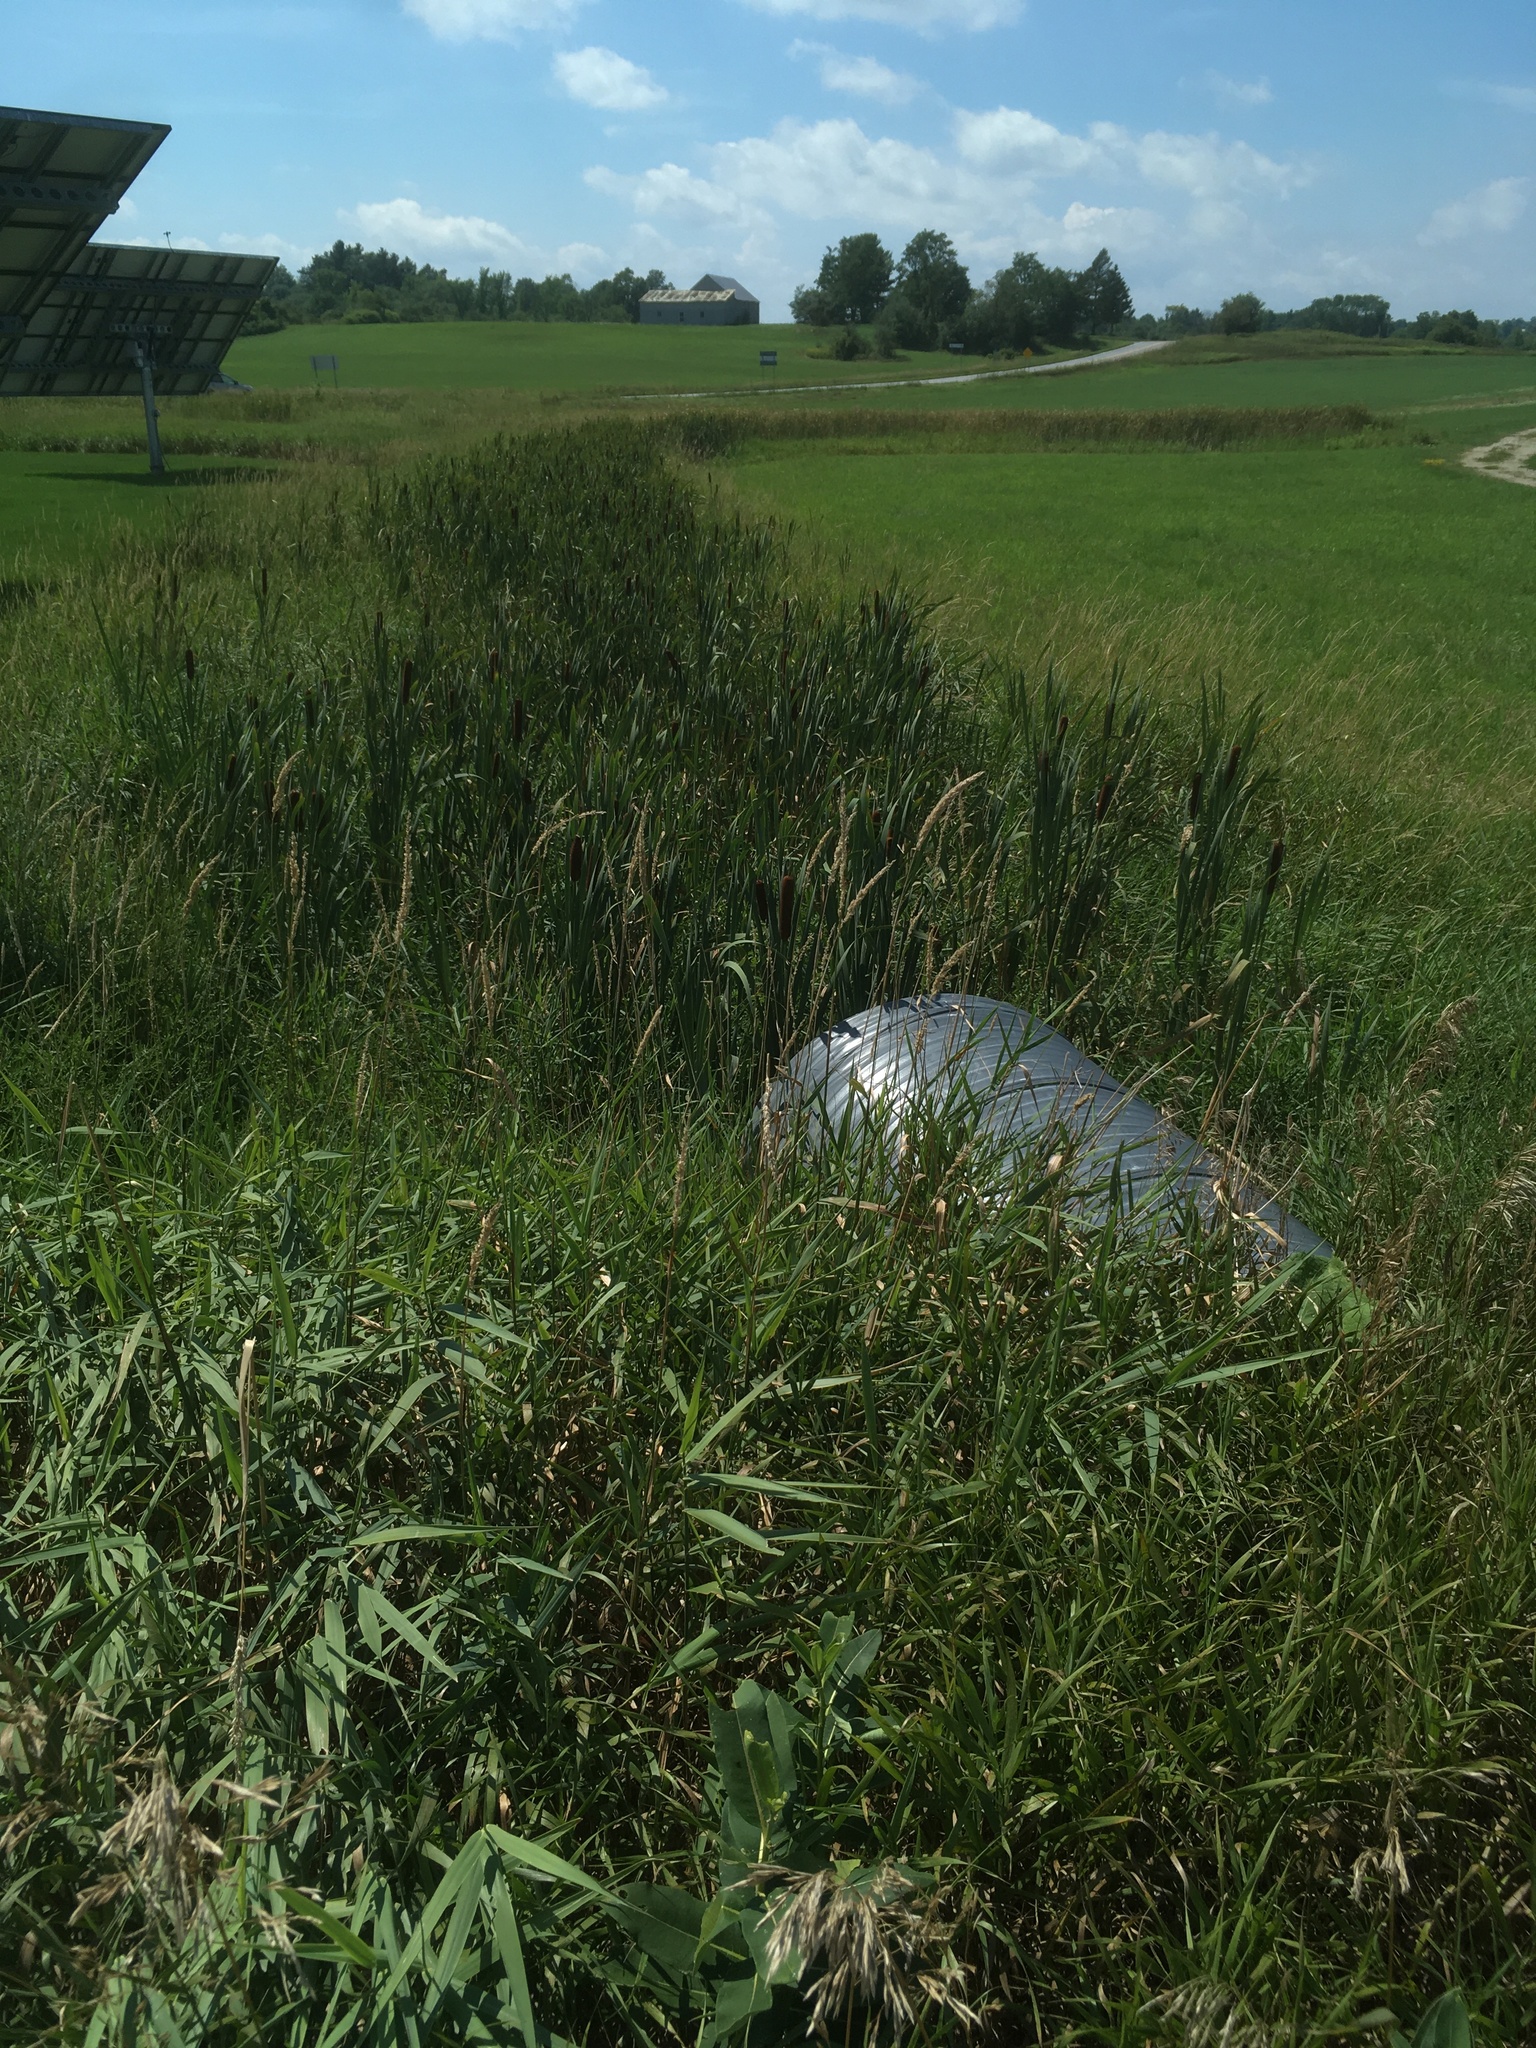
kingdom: Plantae
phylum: Tracheophyta
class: Liliopsida
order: Poales
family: Typhaceae
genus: Typha
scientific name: Typha latifolia
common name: Broadleaf cattail
